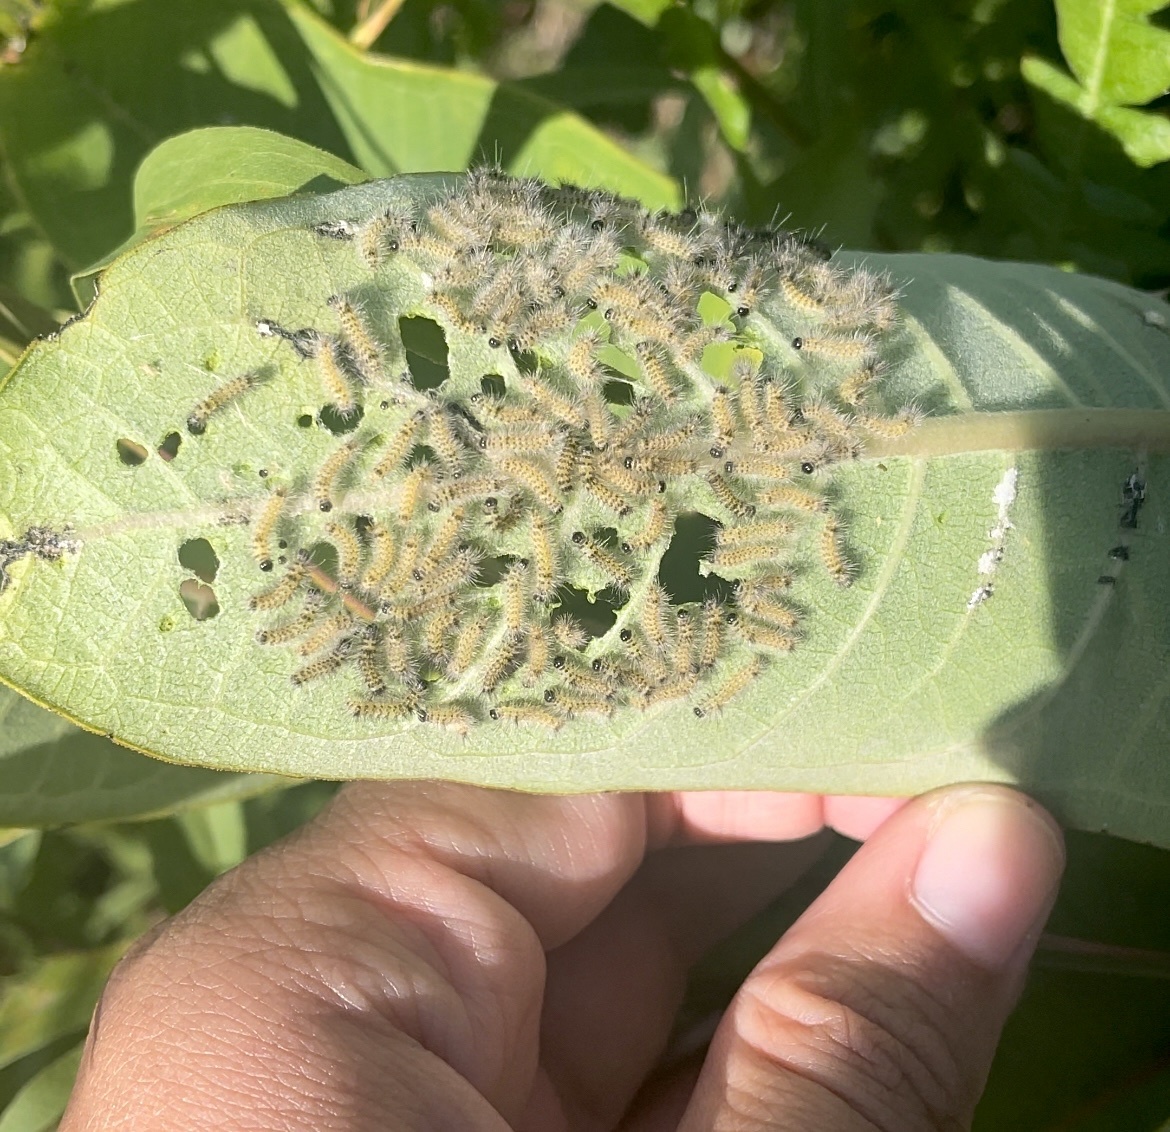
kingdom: Animalia
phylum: Arthropoda
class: Insecta
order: Lepidoptera
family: Erebidae
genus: Euchaetes
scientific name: Euchaetes egle
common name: Milkweed tussock moth
